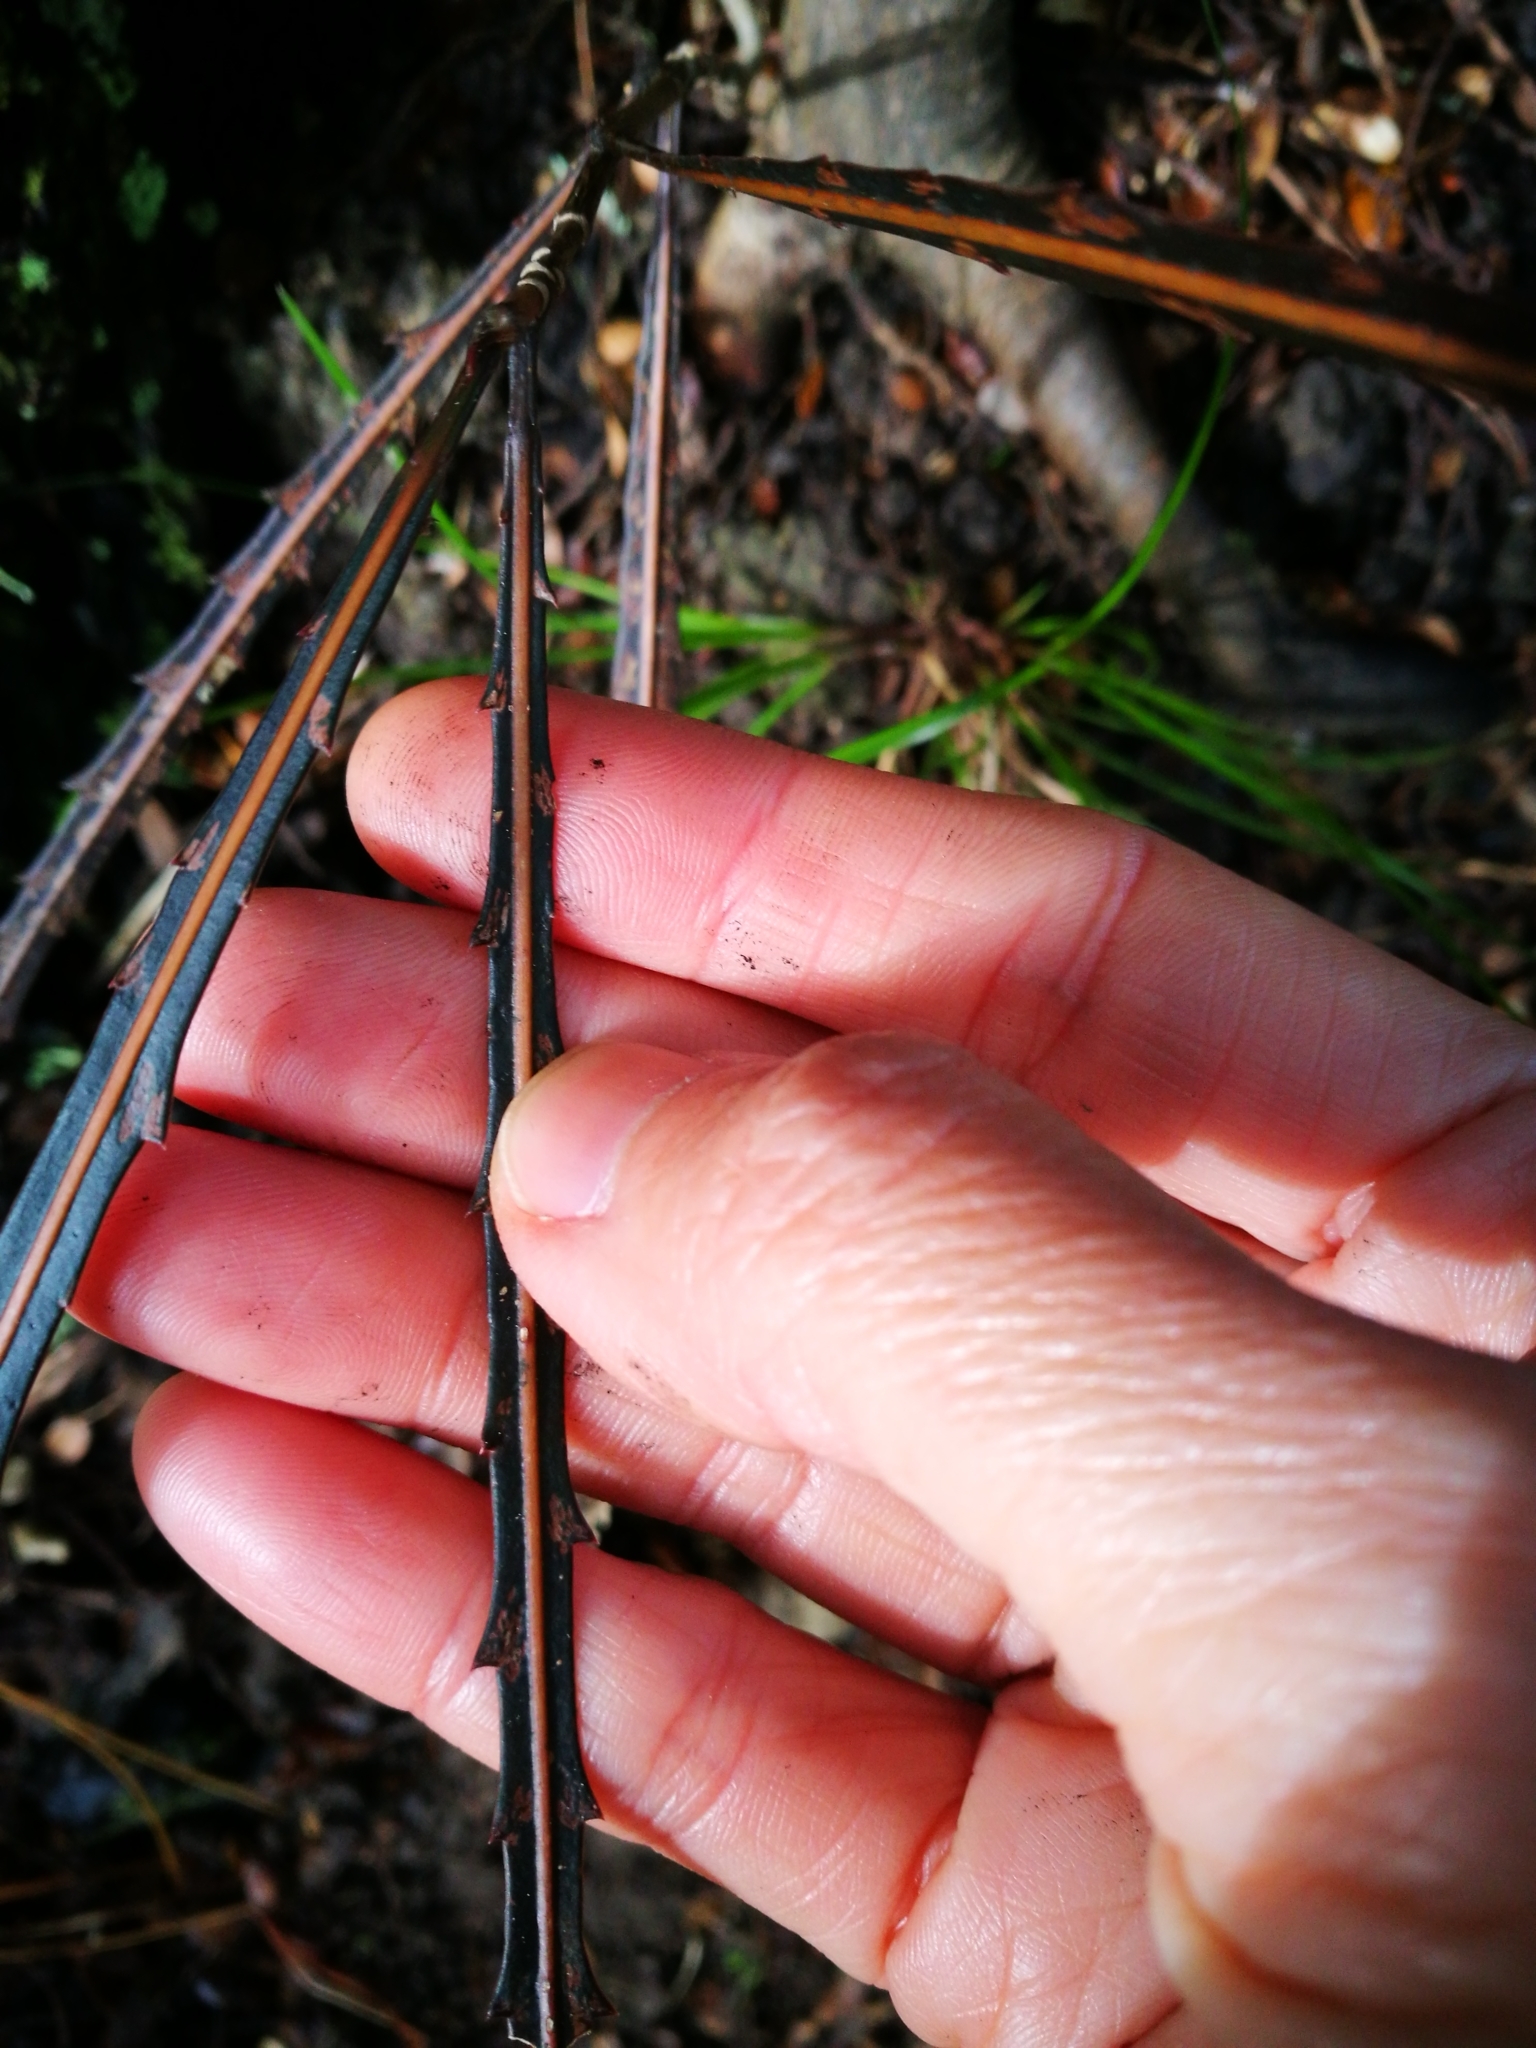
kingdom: Plantae
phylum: Tracheophyta
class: Magnoliopsida
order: Apiales
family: Araliaceae
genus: Pseudopanax
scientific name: Pseudopanax crassifolius
